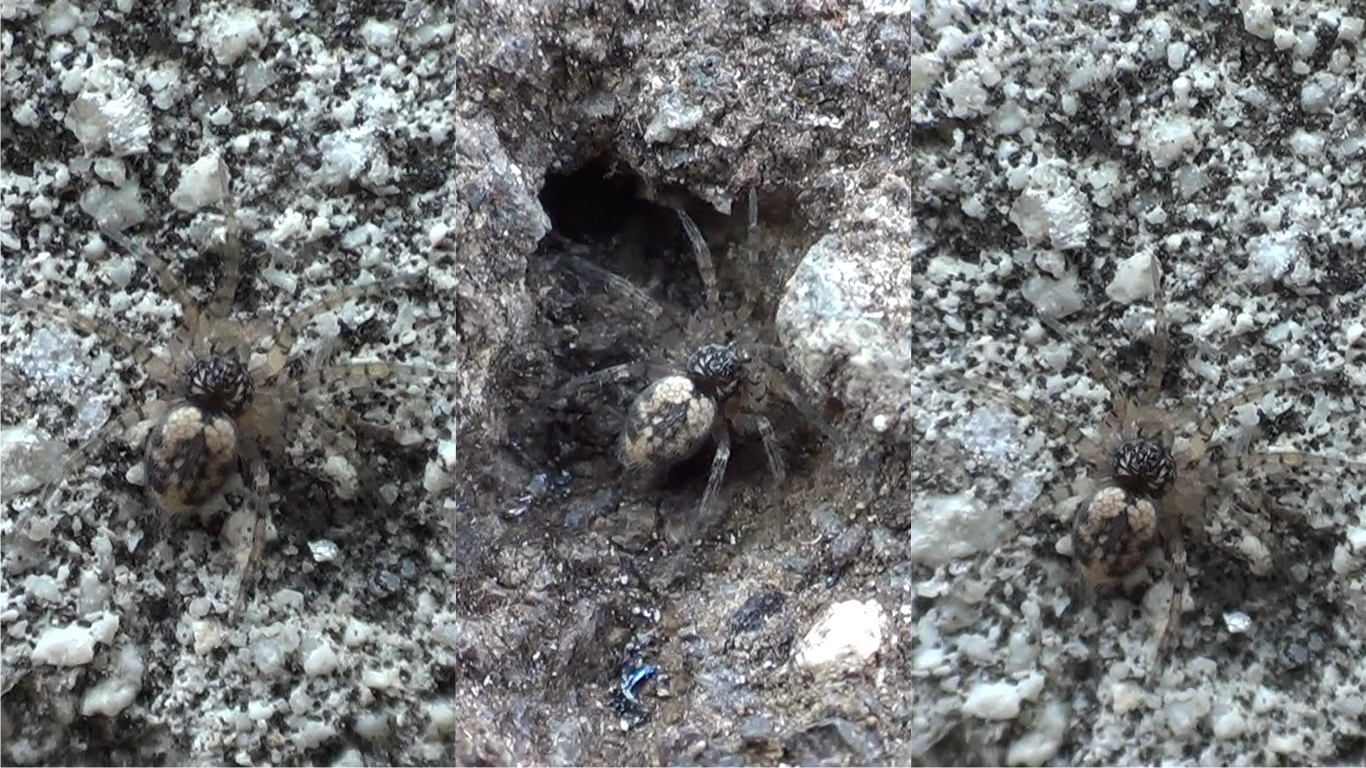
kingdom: Animalia
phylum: Arthropoda
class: Arachnida
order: Araneae
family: Oecobiidae
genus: Oecobius
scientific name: Oecobius maculatus
